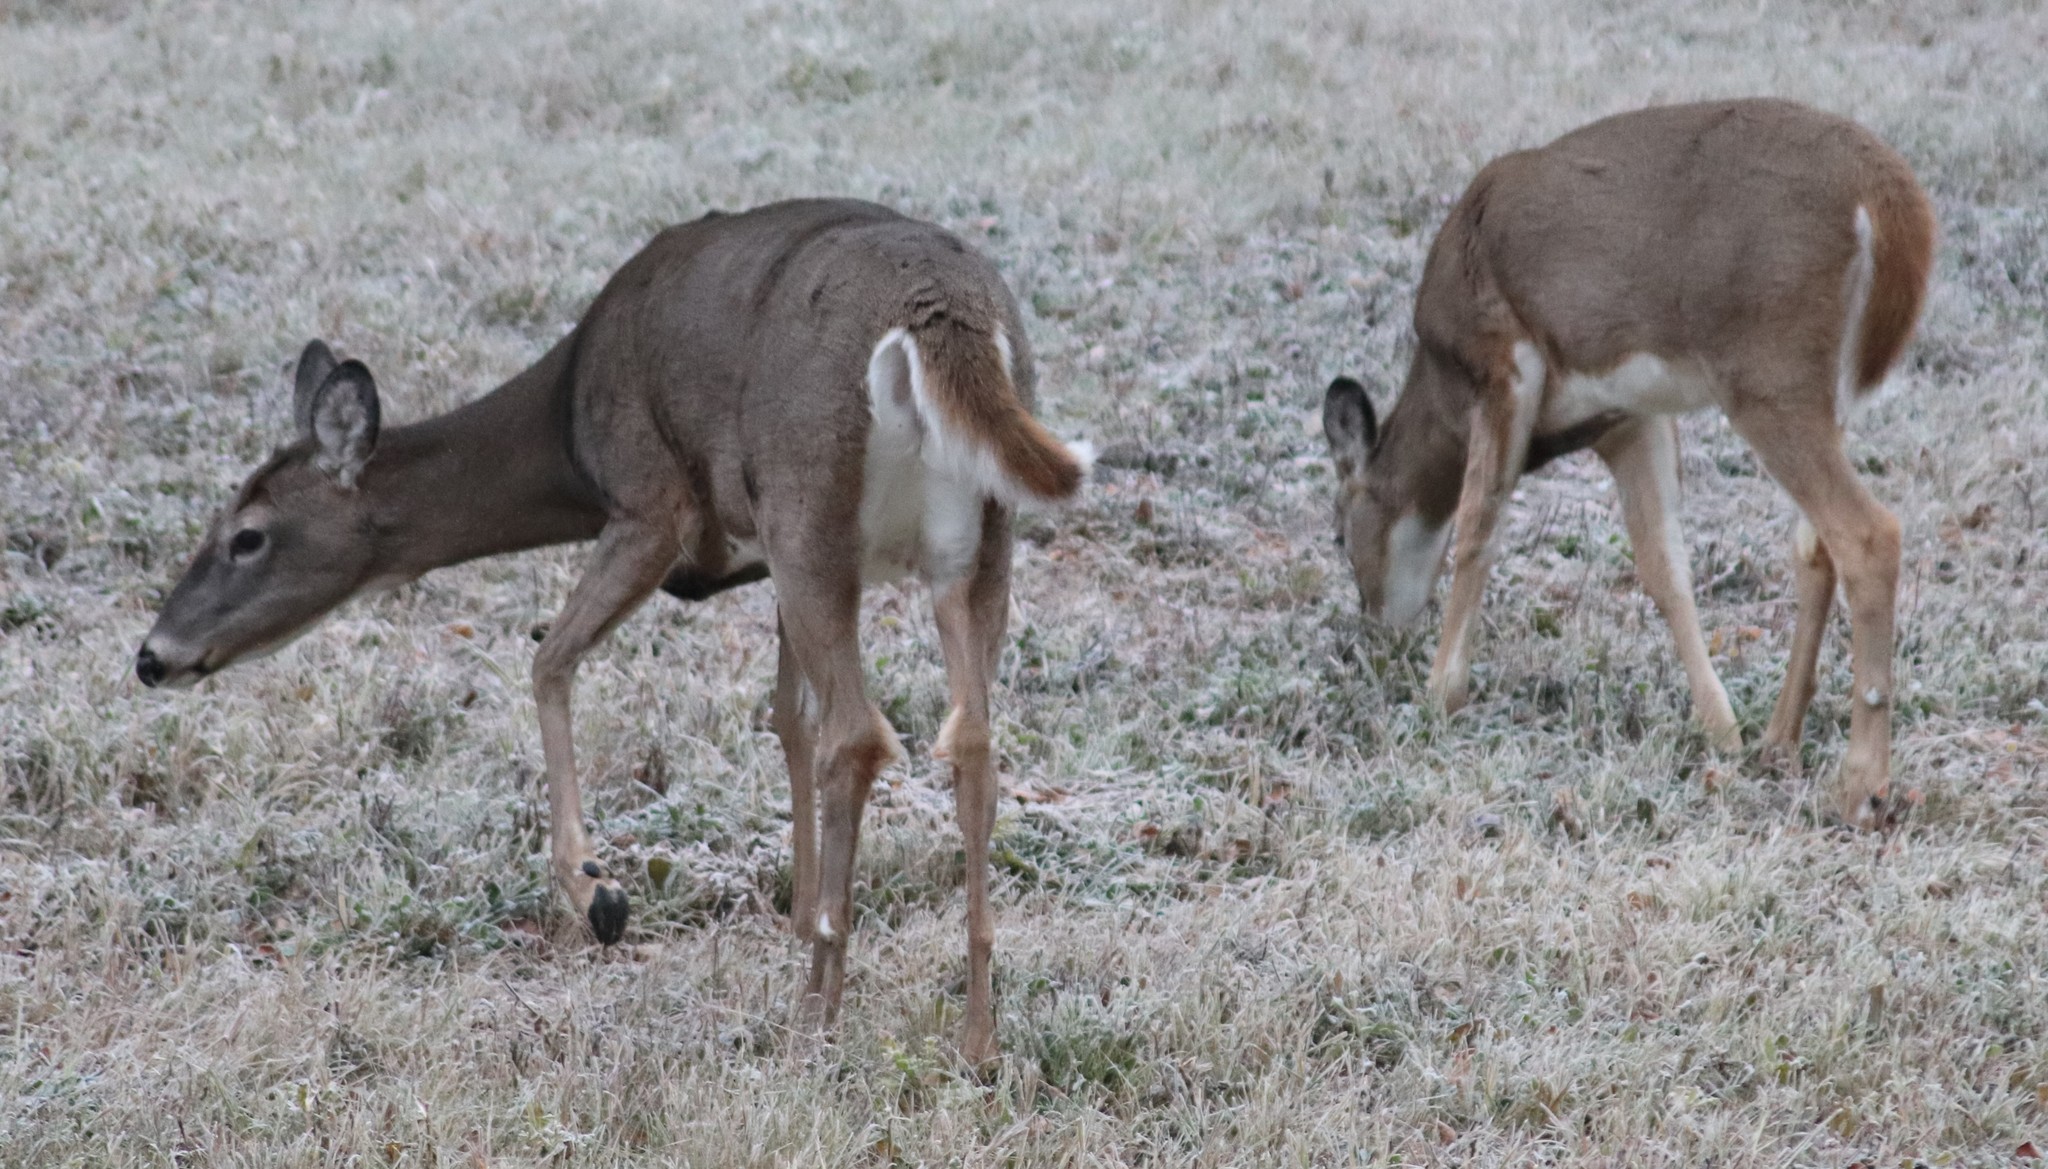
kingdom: Animalia
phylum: Chordata
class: Mammalia
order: Artiodactyla
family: Cervidae
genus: Odocoileus
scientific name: Odocoileus virginianus
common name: White-tailed deer
